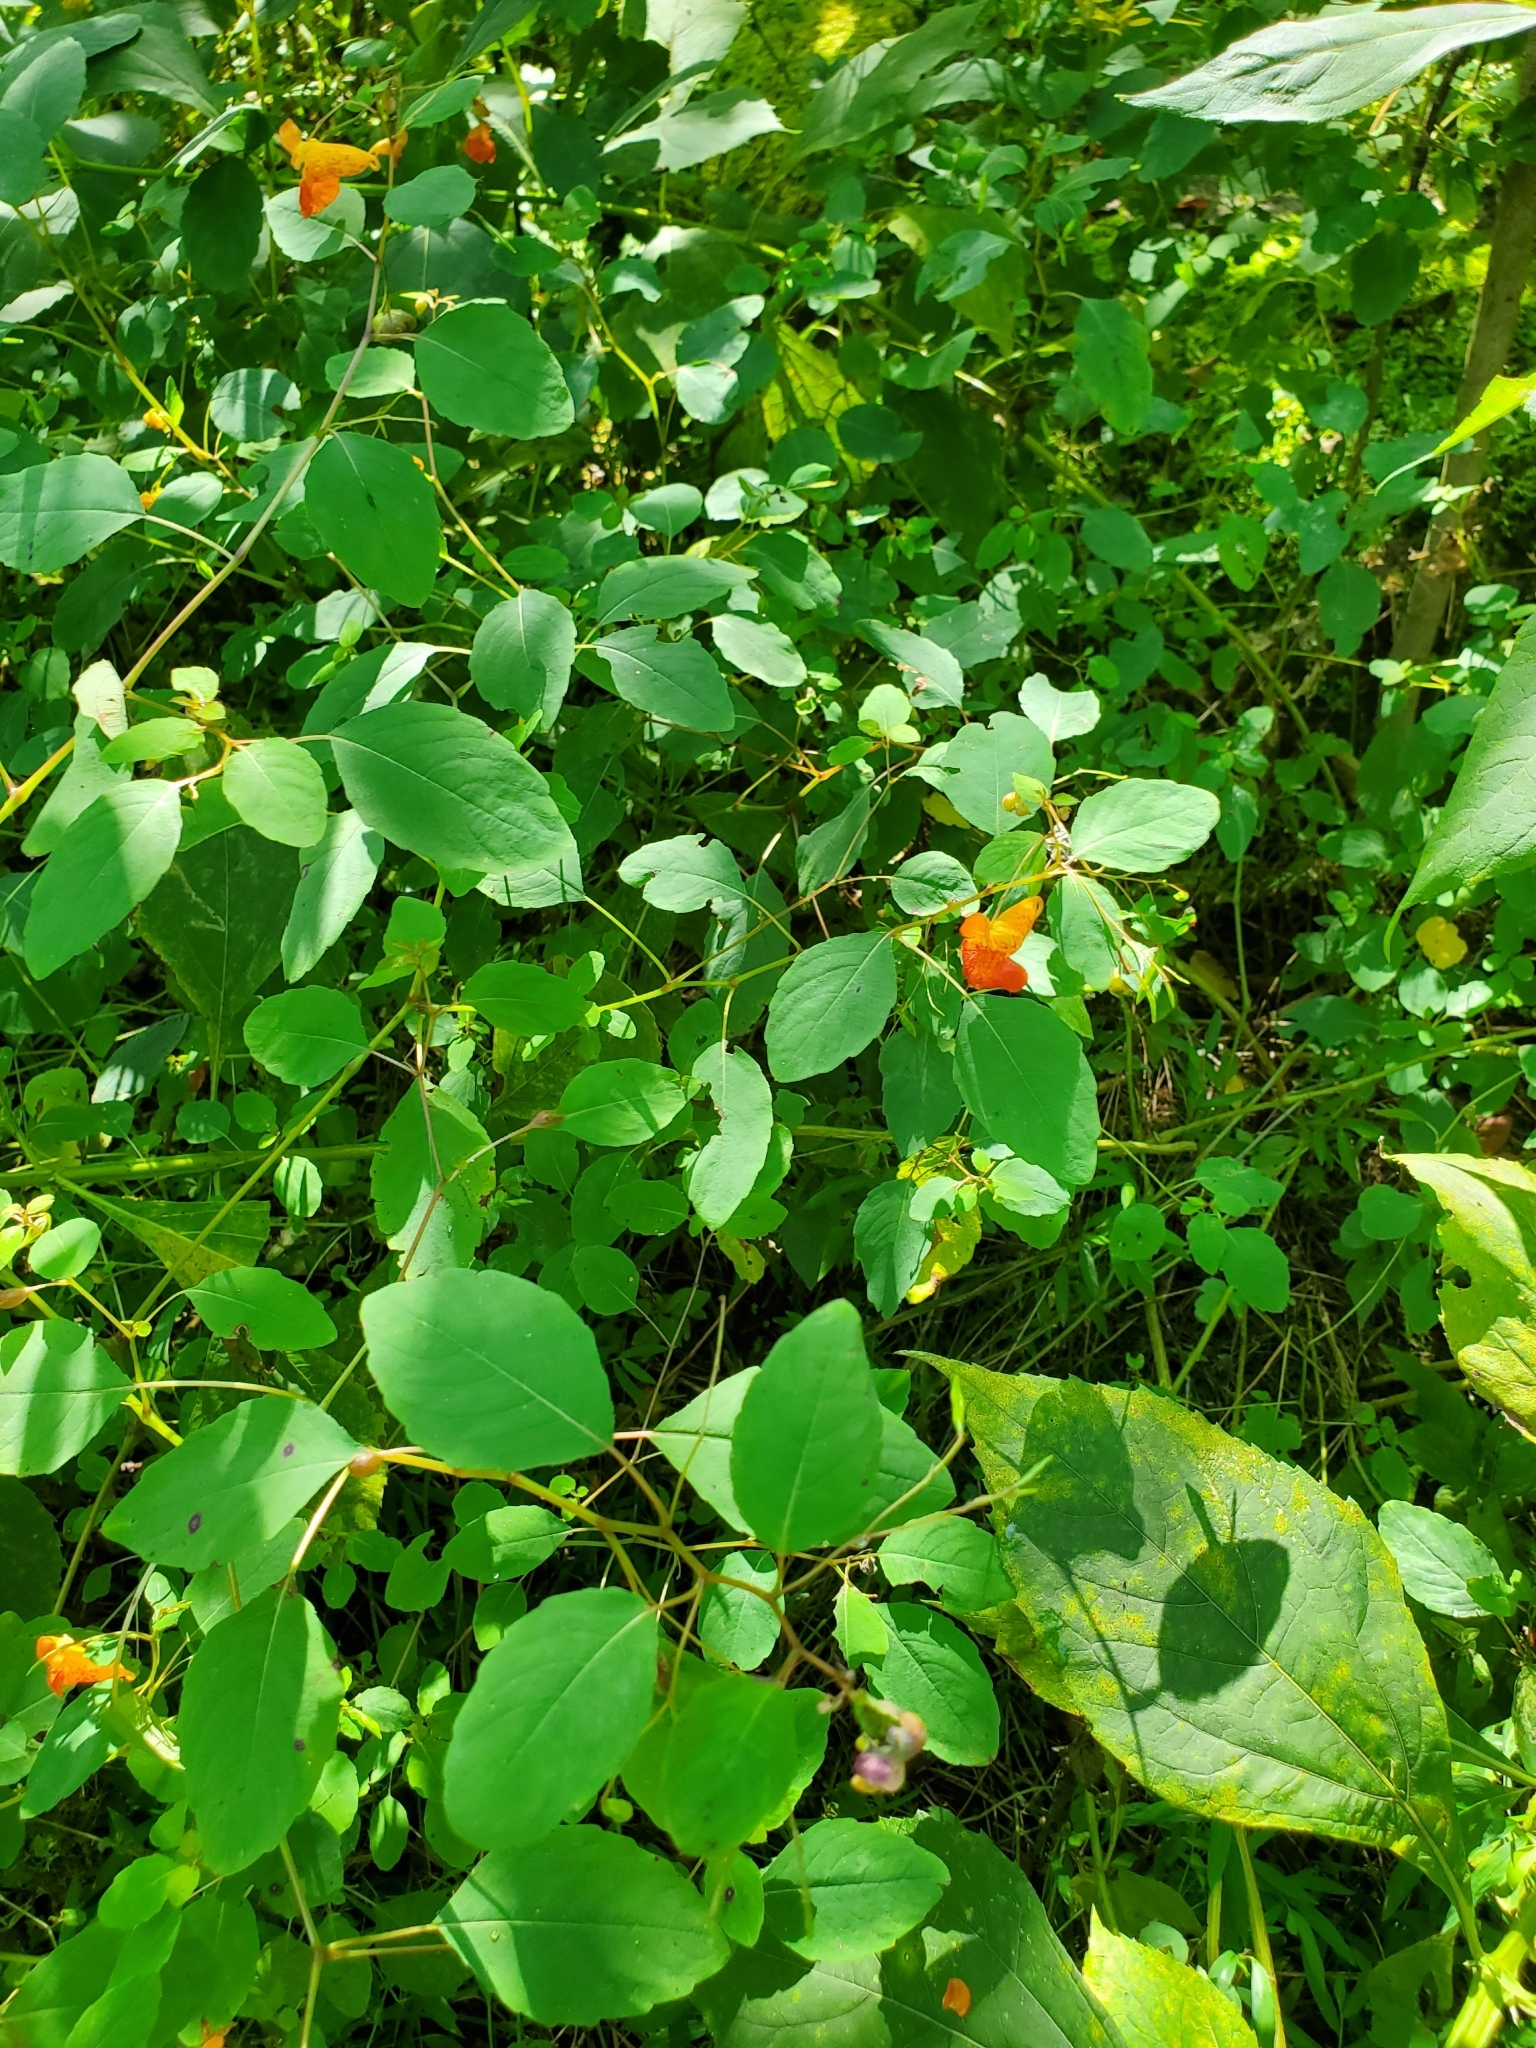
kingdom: Plantae
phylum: Tracheophyta
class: Magnoliopsida
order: Ericales
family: Balsaminaceae
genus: Impatiens
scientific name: Impatiens capensis
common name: Orange balsam
